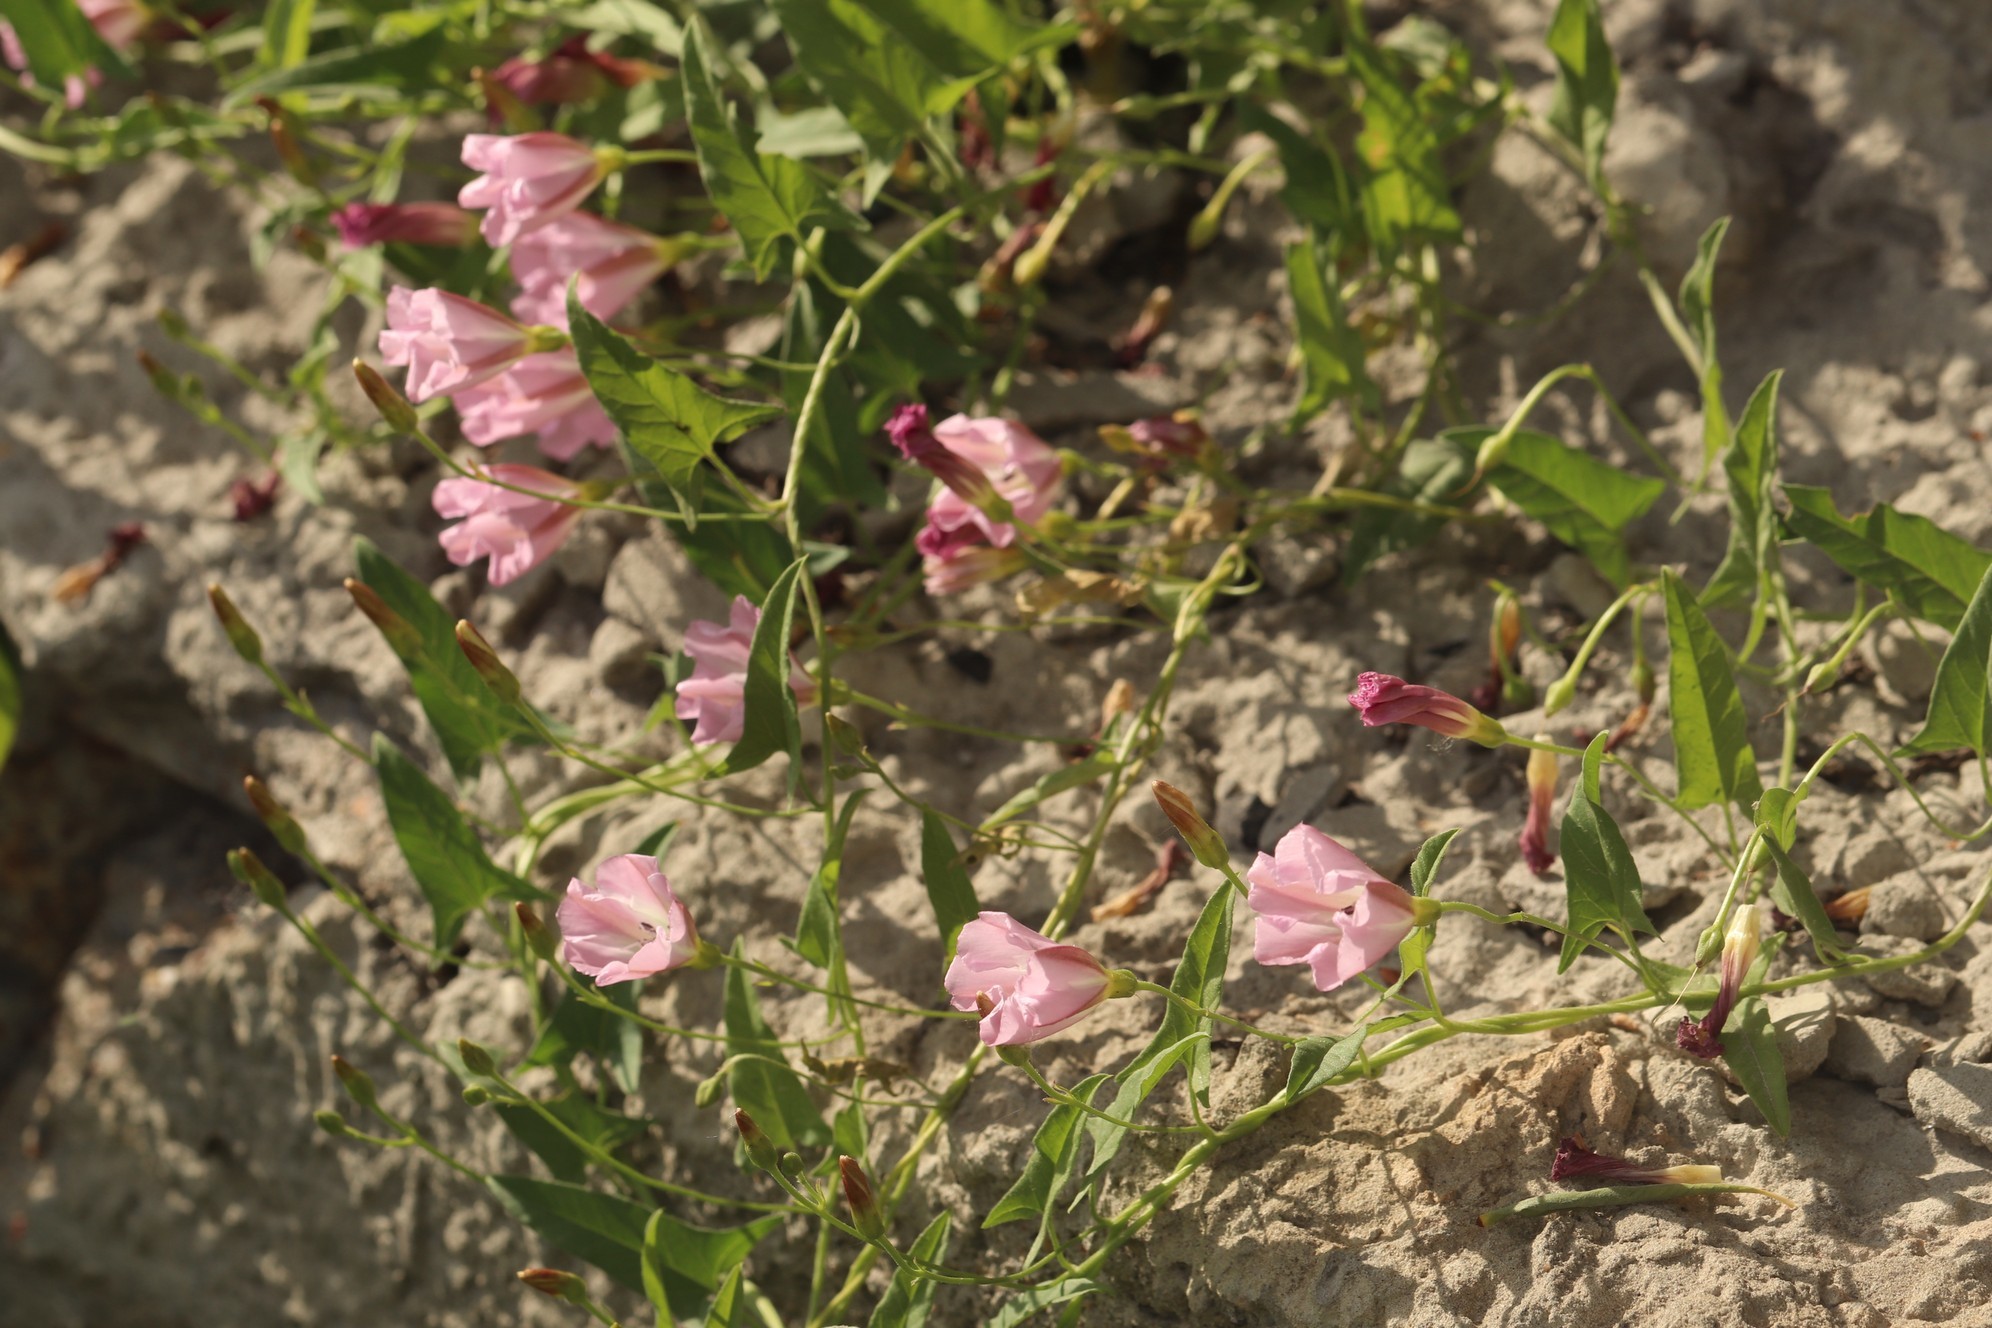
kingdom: Plantae
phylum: Tracheophyta
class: Magnoliopsida
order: Solanales
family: Convolvulaceae
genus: Convolvulus
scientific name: Convolvulus arvensis
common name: Field bindweed
